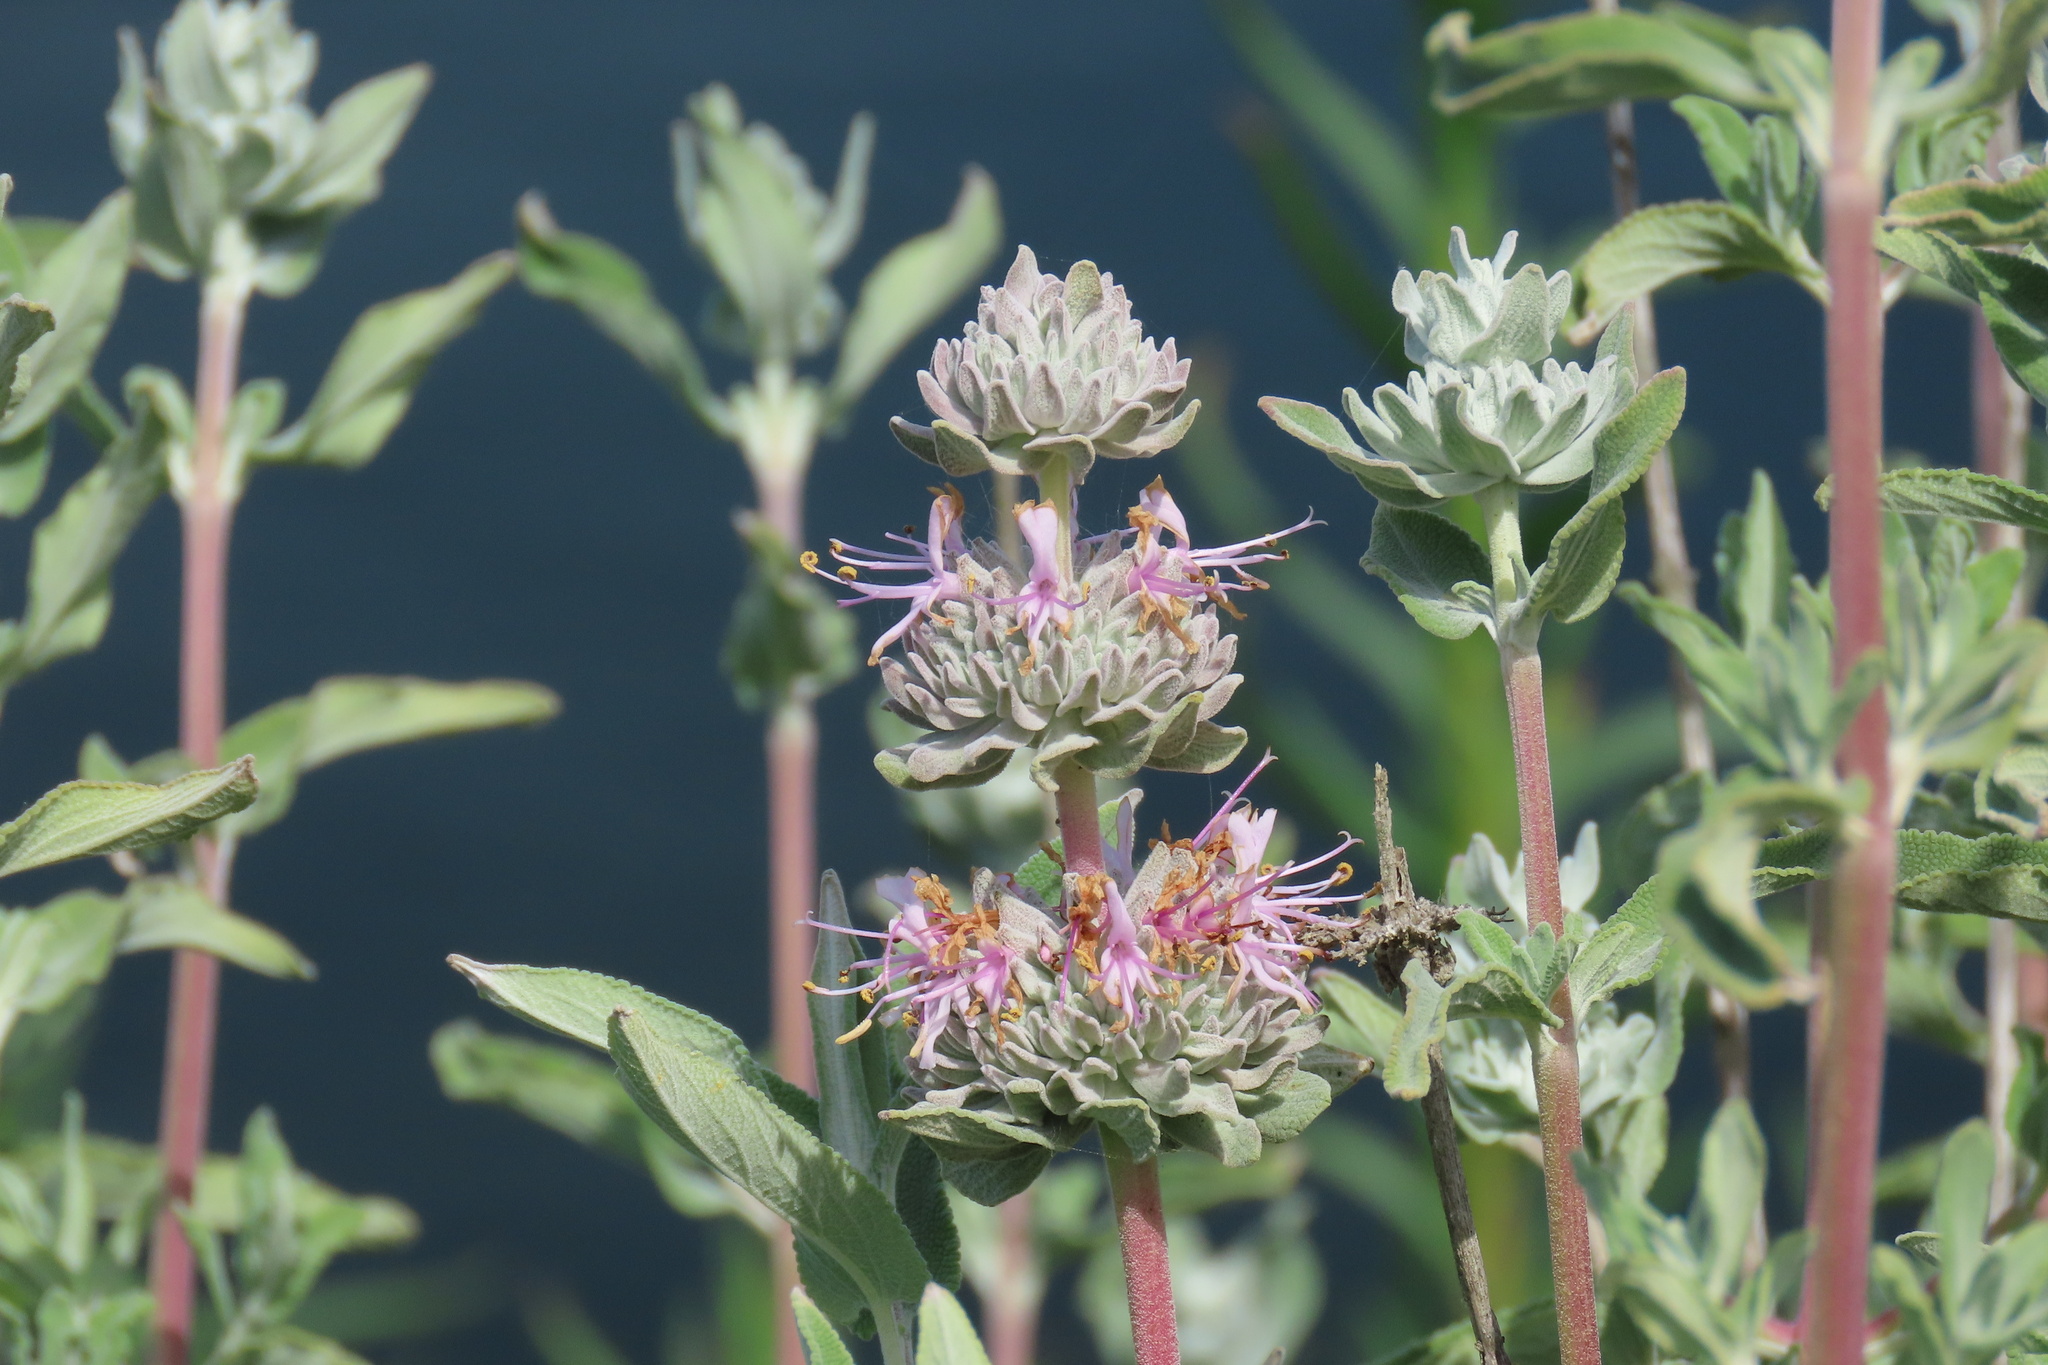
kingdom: Plantae
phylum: Tracheophyta
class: Magnoliopsida
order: Lamiales
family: Lamiaceae
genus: Salvia
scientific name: Salvia leucophylla
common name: Purple sage
